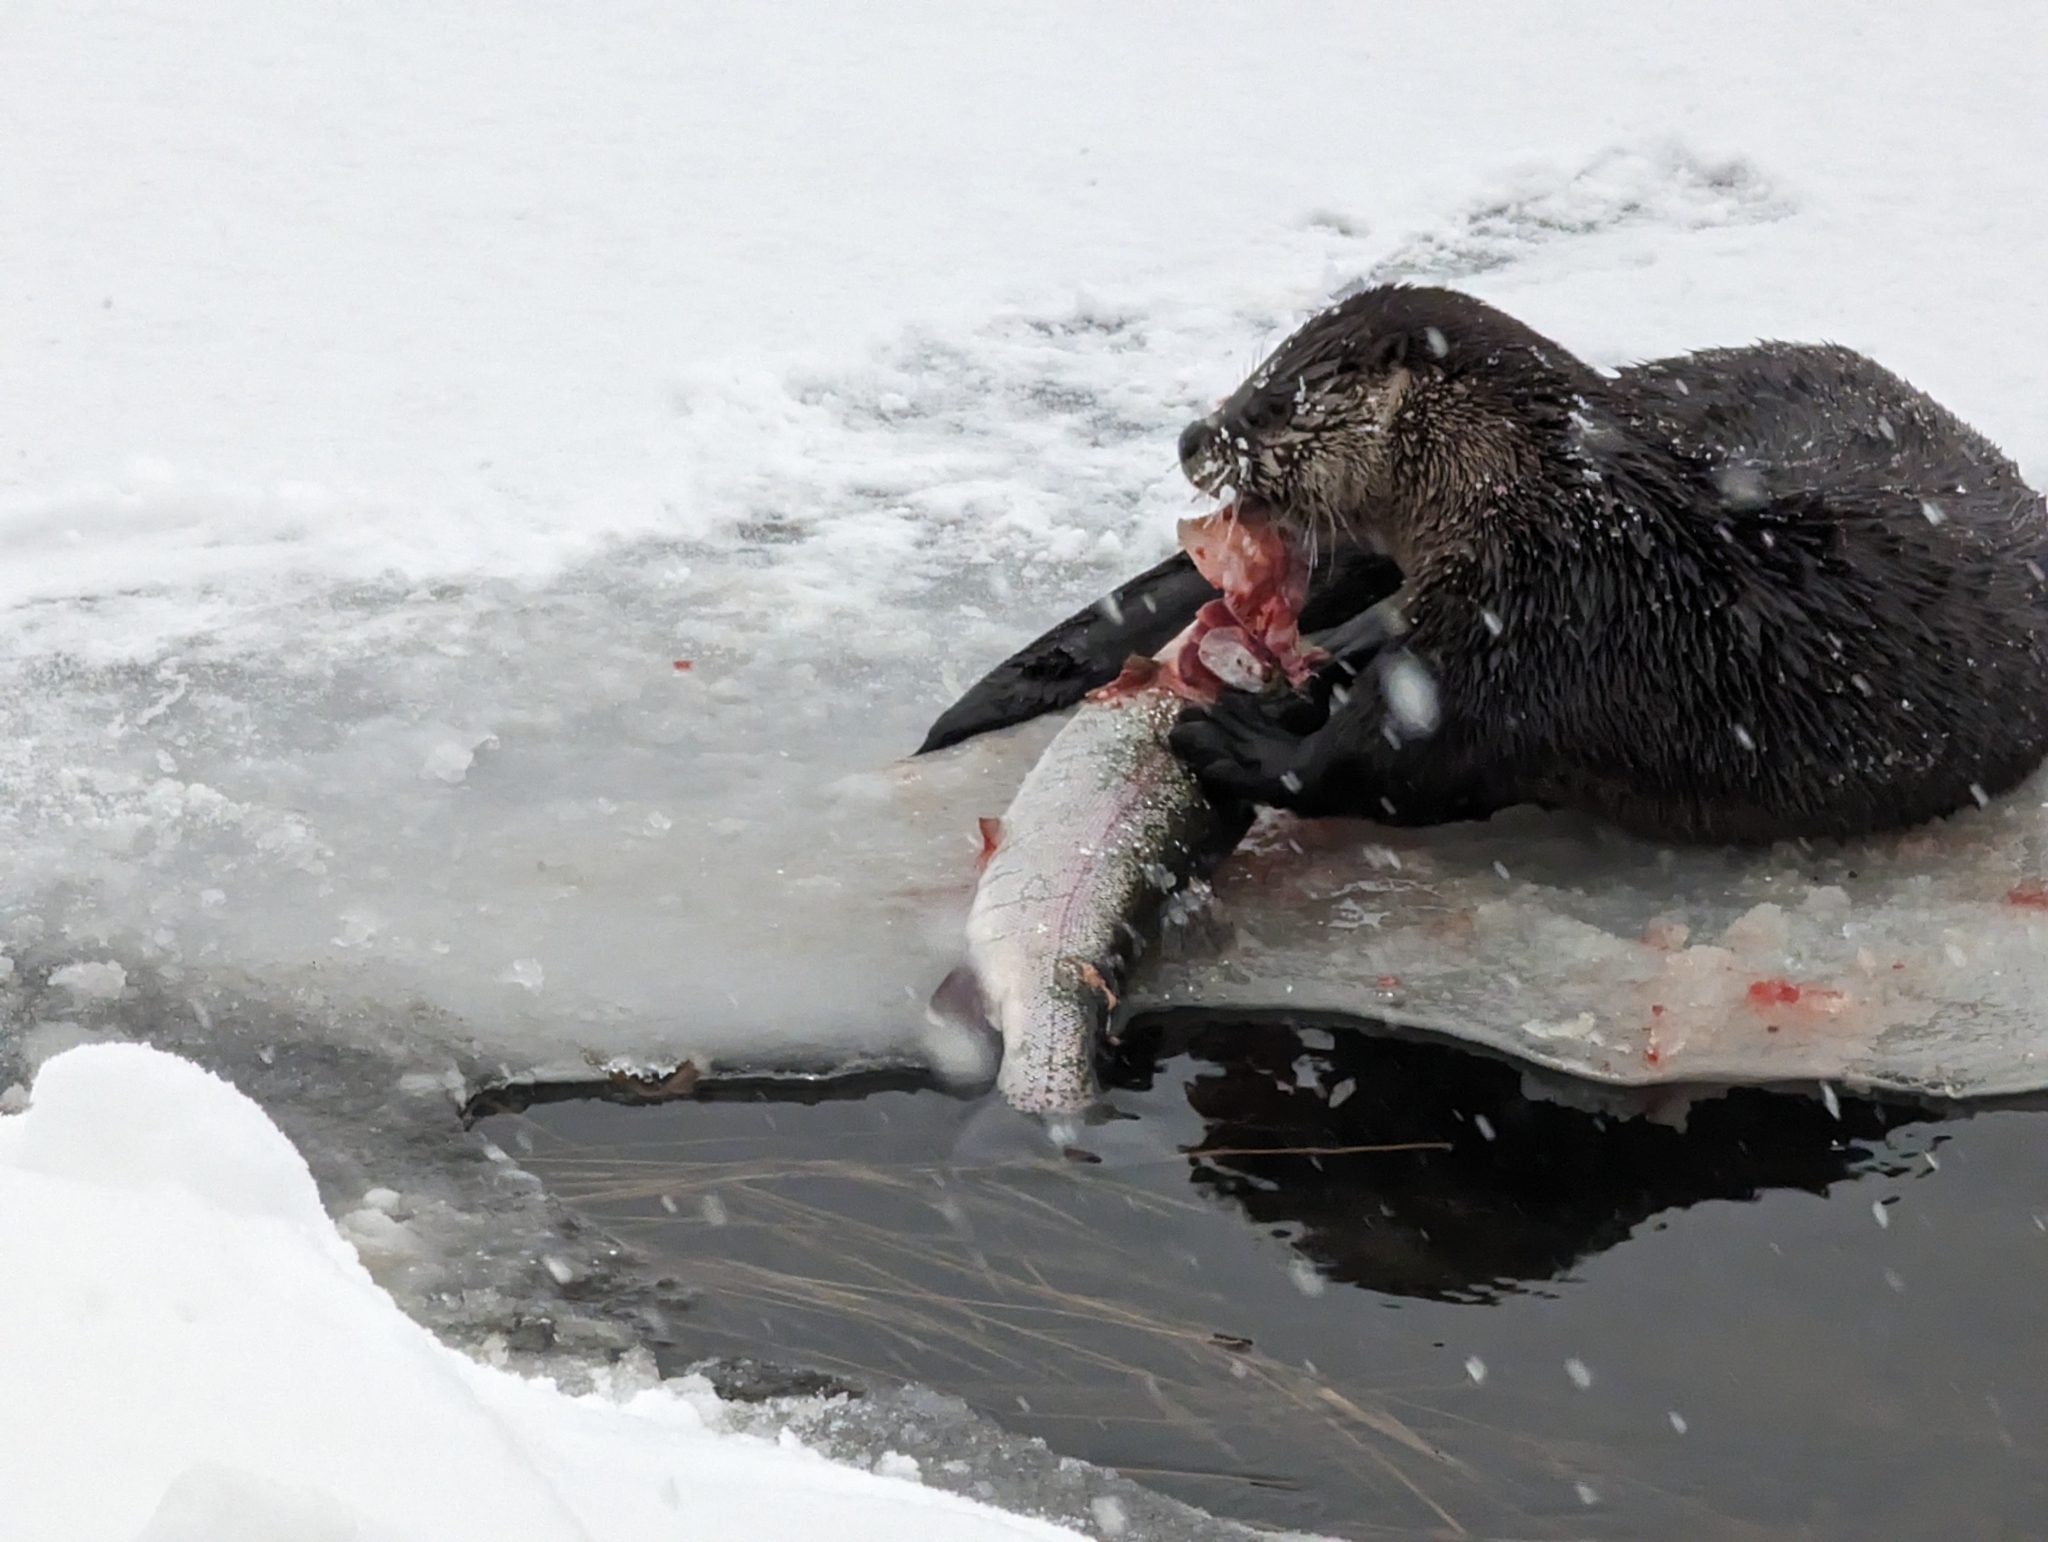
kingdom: Animalia
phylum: Chordata
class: Mammalia
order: Carnivora
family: Mustelidae
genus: Lontra
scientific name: Lontra canadensis
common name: North american river otter
